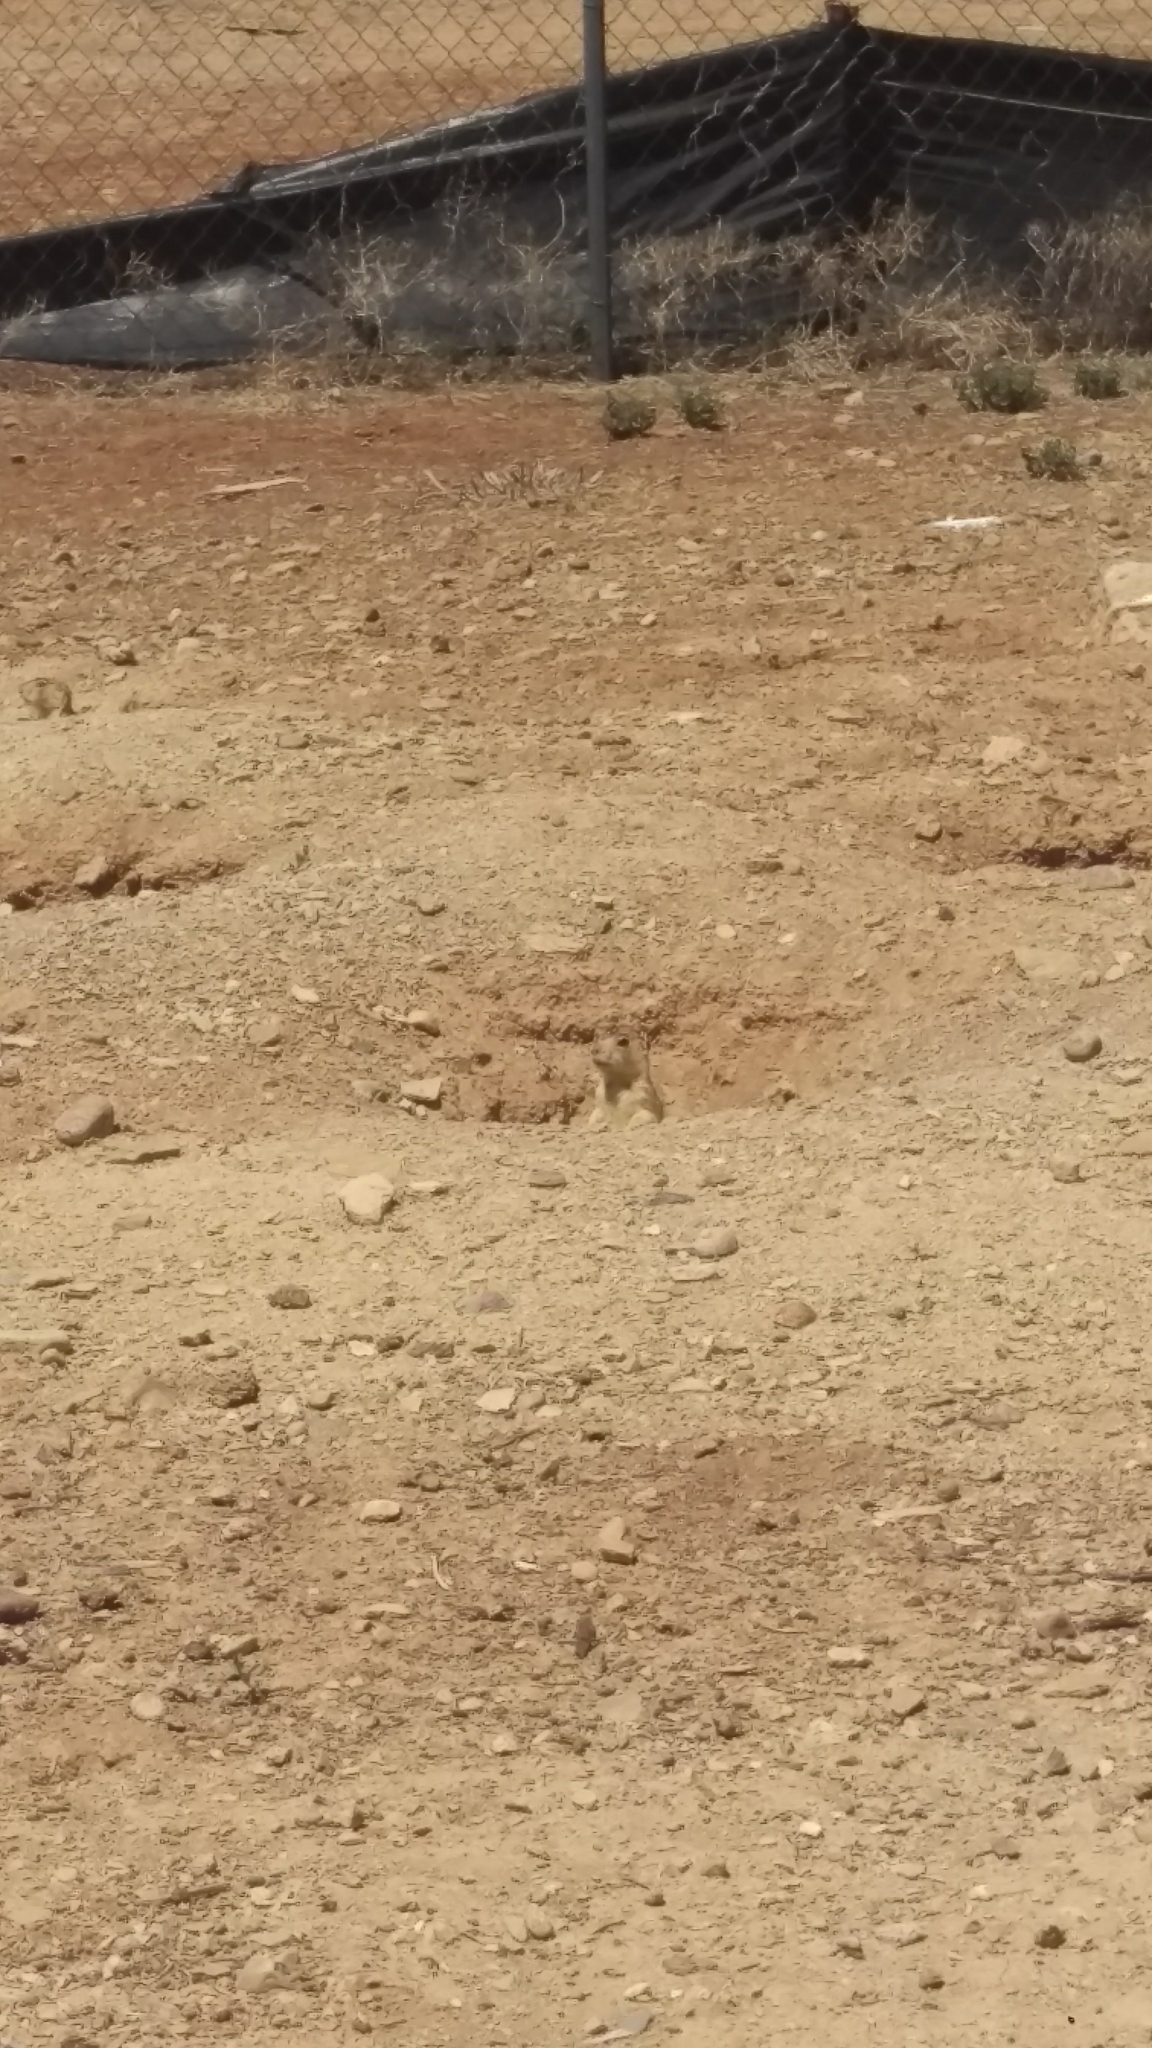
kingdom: Animalia
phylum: Chordata
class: Mammalia
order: Rodentia
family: Sciuridae
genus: Cynomys
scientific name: Cynomys gunnisoni
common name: Gunnison's prairie dog
